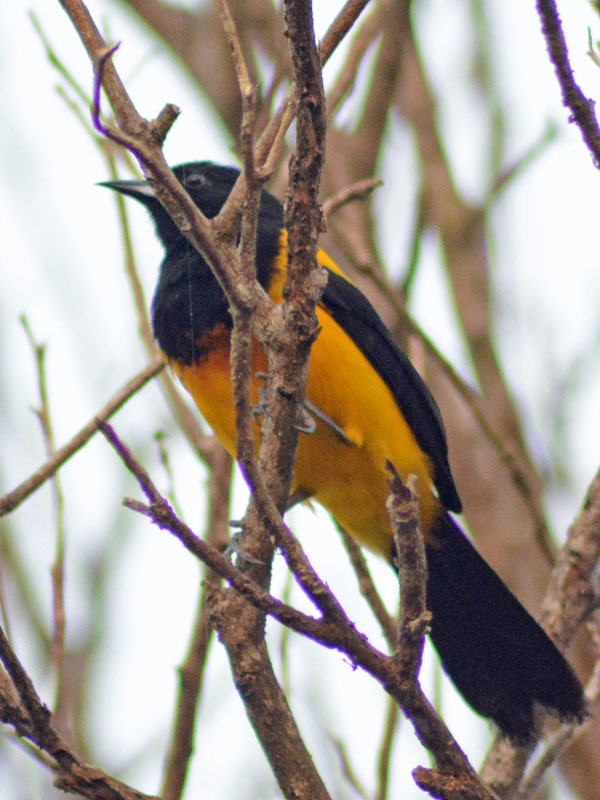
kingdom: Animalia
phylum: Chordata
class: Aves
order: Passeriformes
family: Icteridae
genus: Icterus
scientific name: Icterus prosthemelas
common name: Black-cowled oriole
